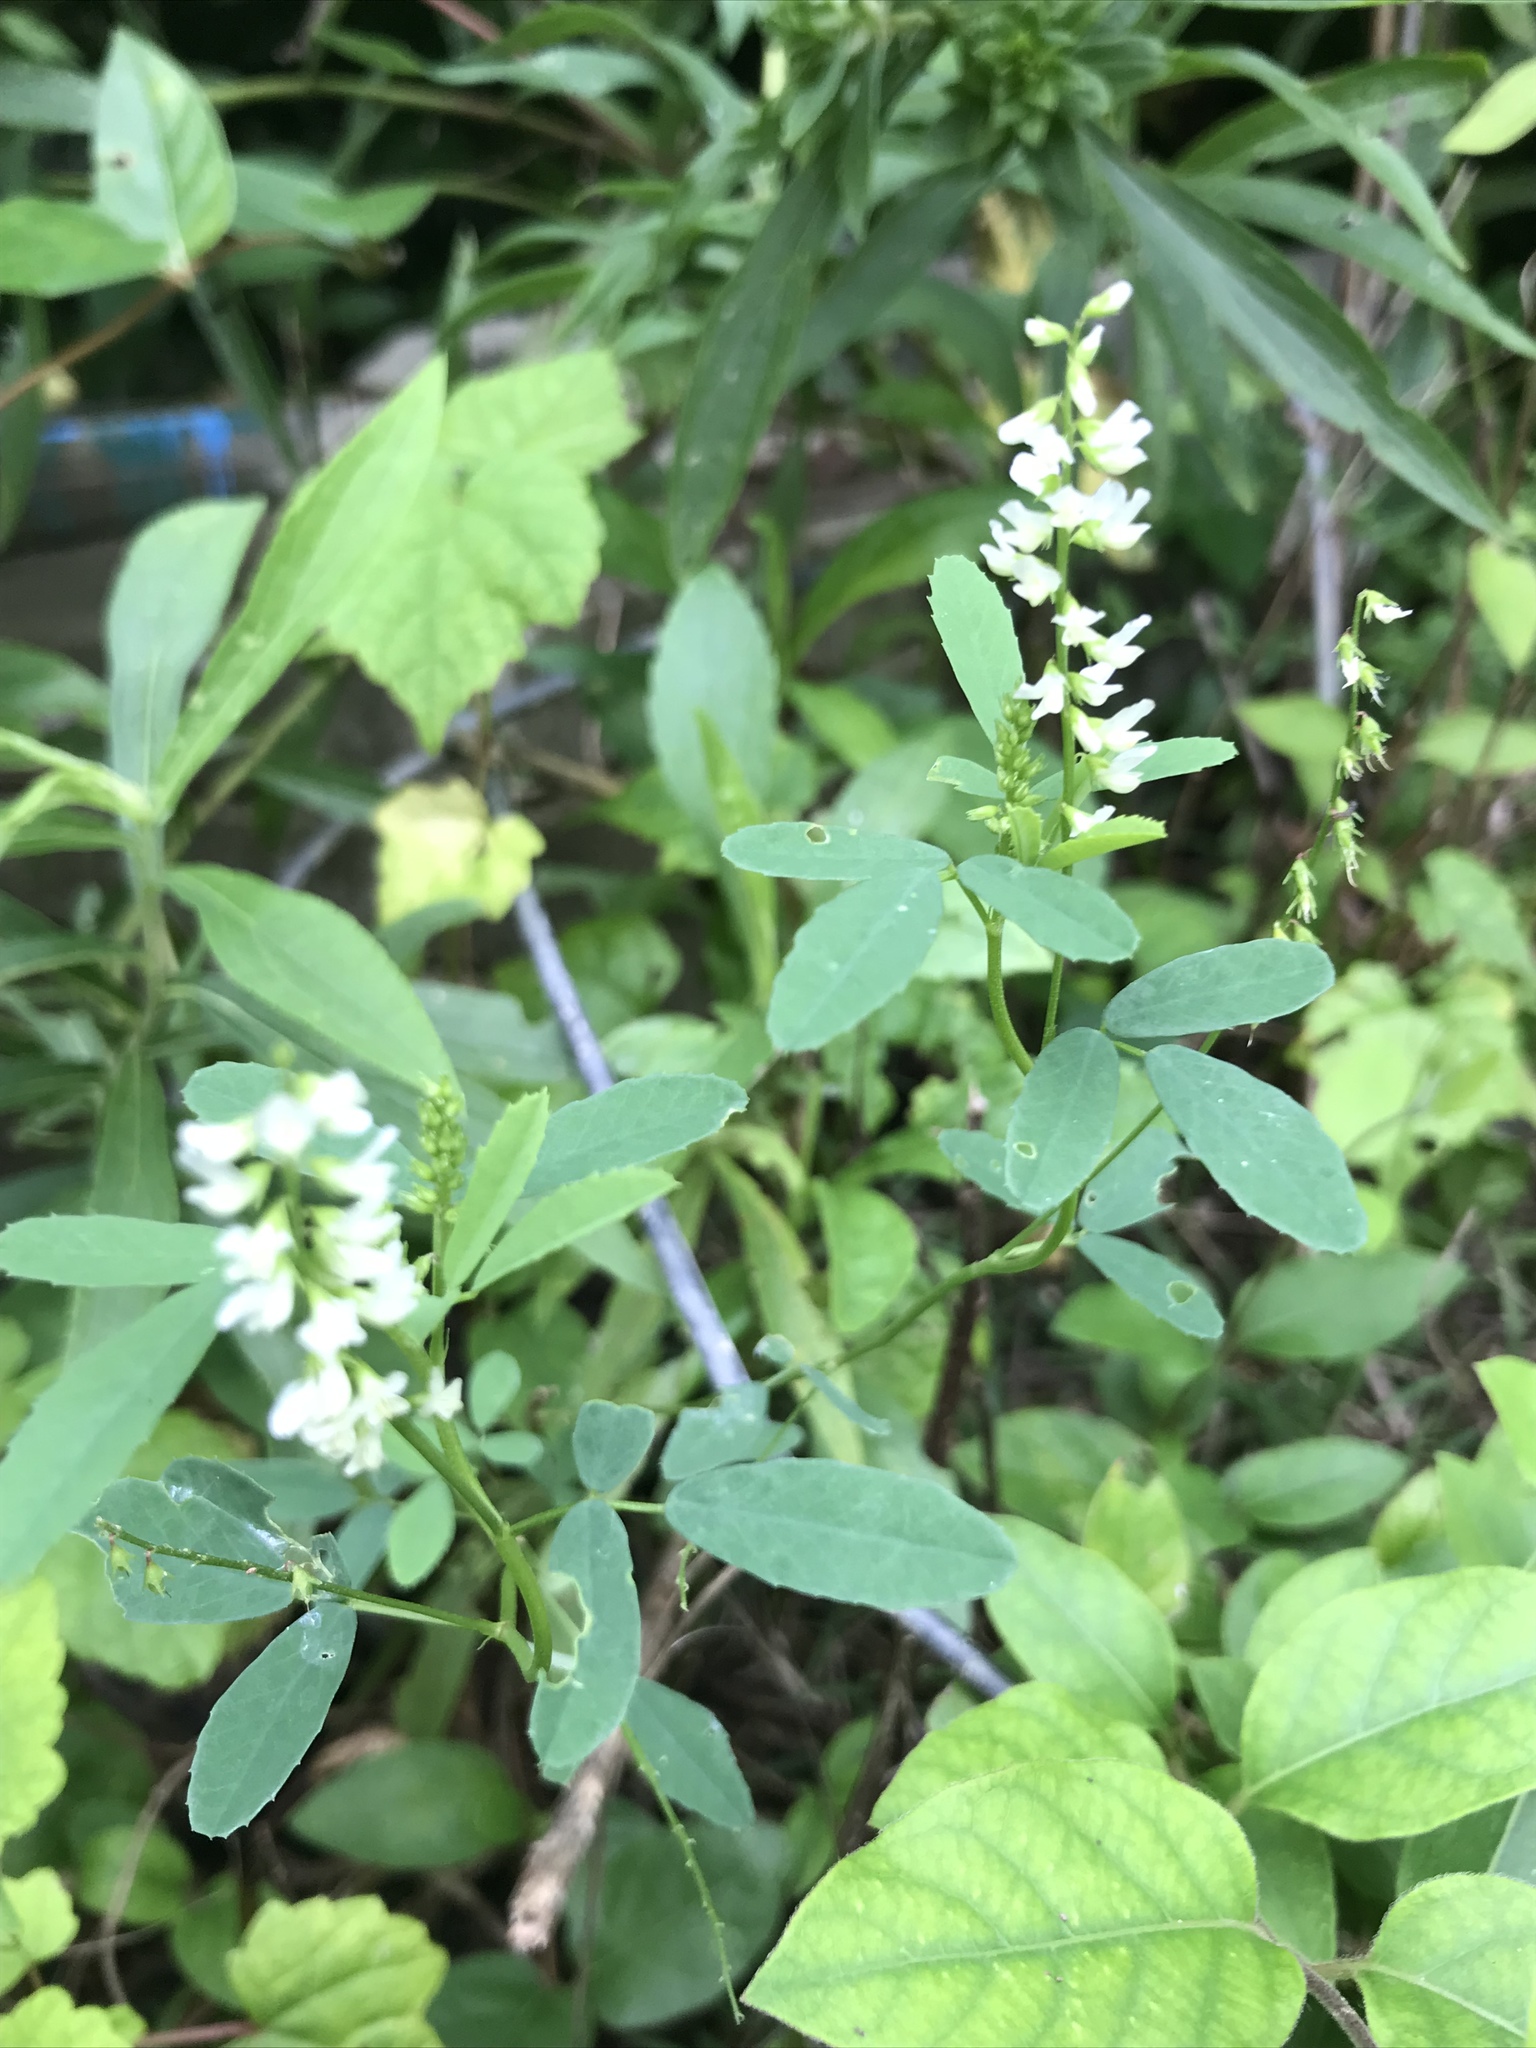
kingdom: Plantae
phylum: Tracheophyta
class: Magnoliopsida
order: Fabales
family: Fabaceae
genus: Melilotus
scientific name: Melilotus albus
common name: White melilot
